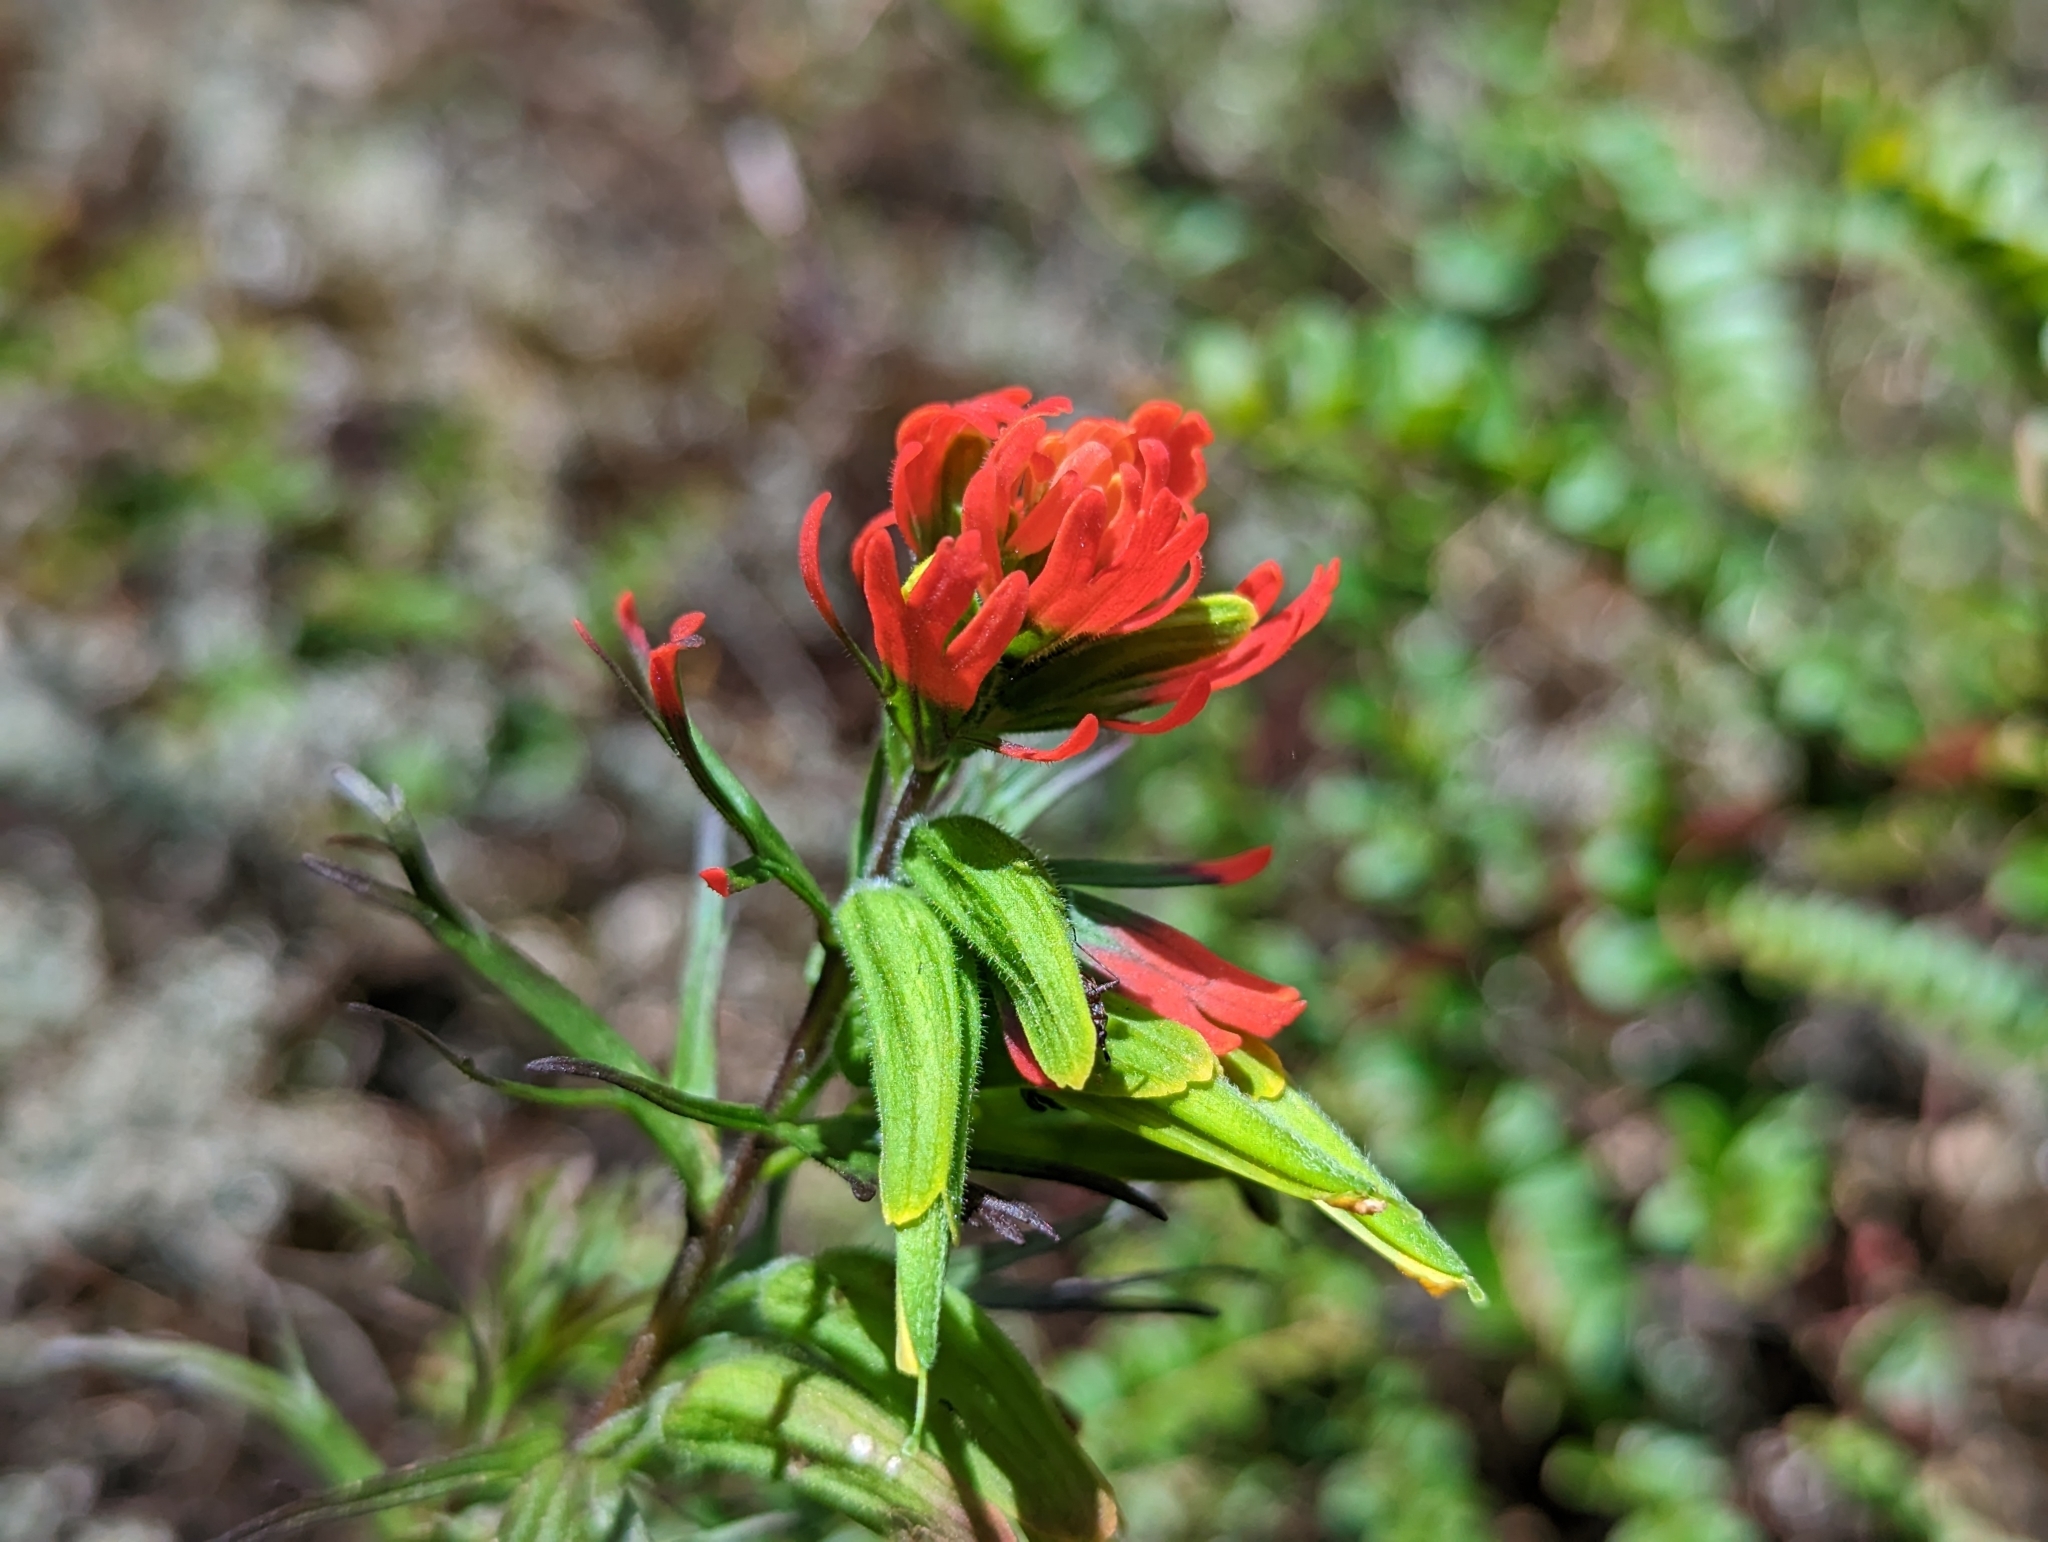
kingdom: Plantae
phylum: Tracheophyta
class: Magnoliopsida
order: Lamiales
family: Orobanchaceae
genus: Castilleja
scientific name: Castilleja fissifolia
